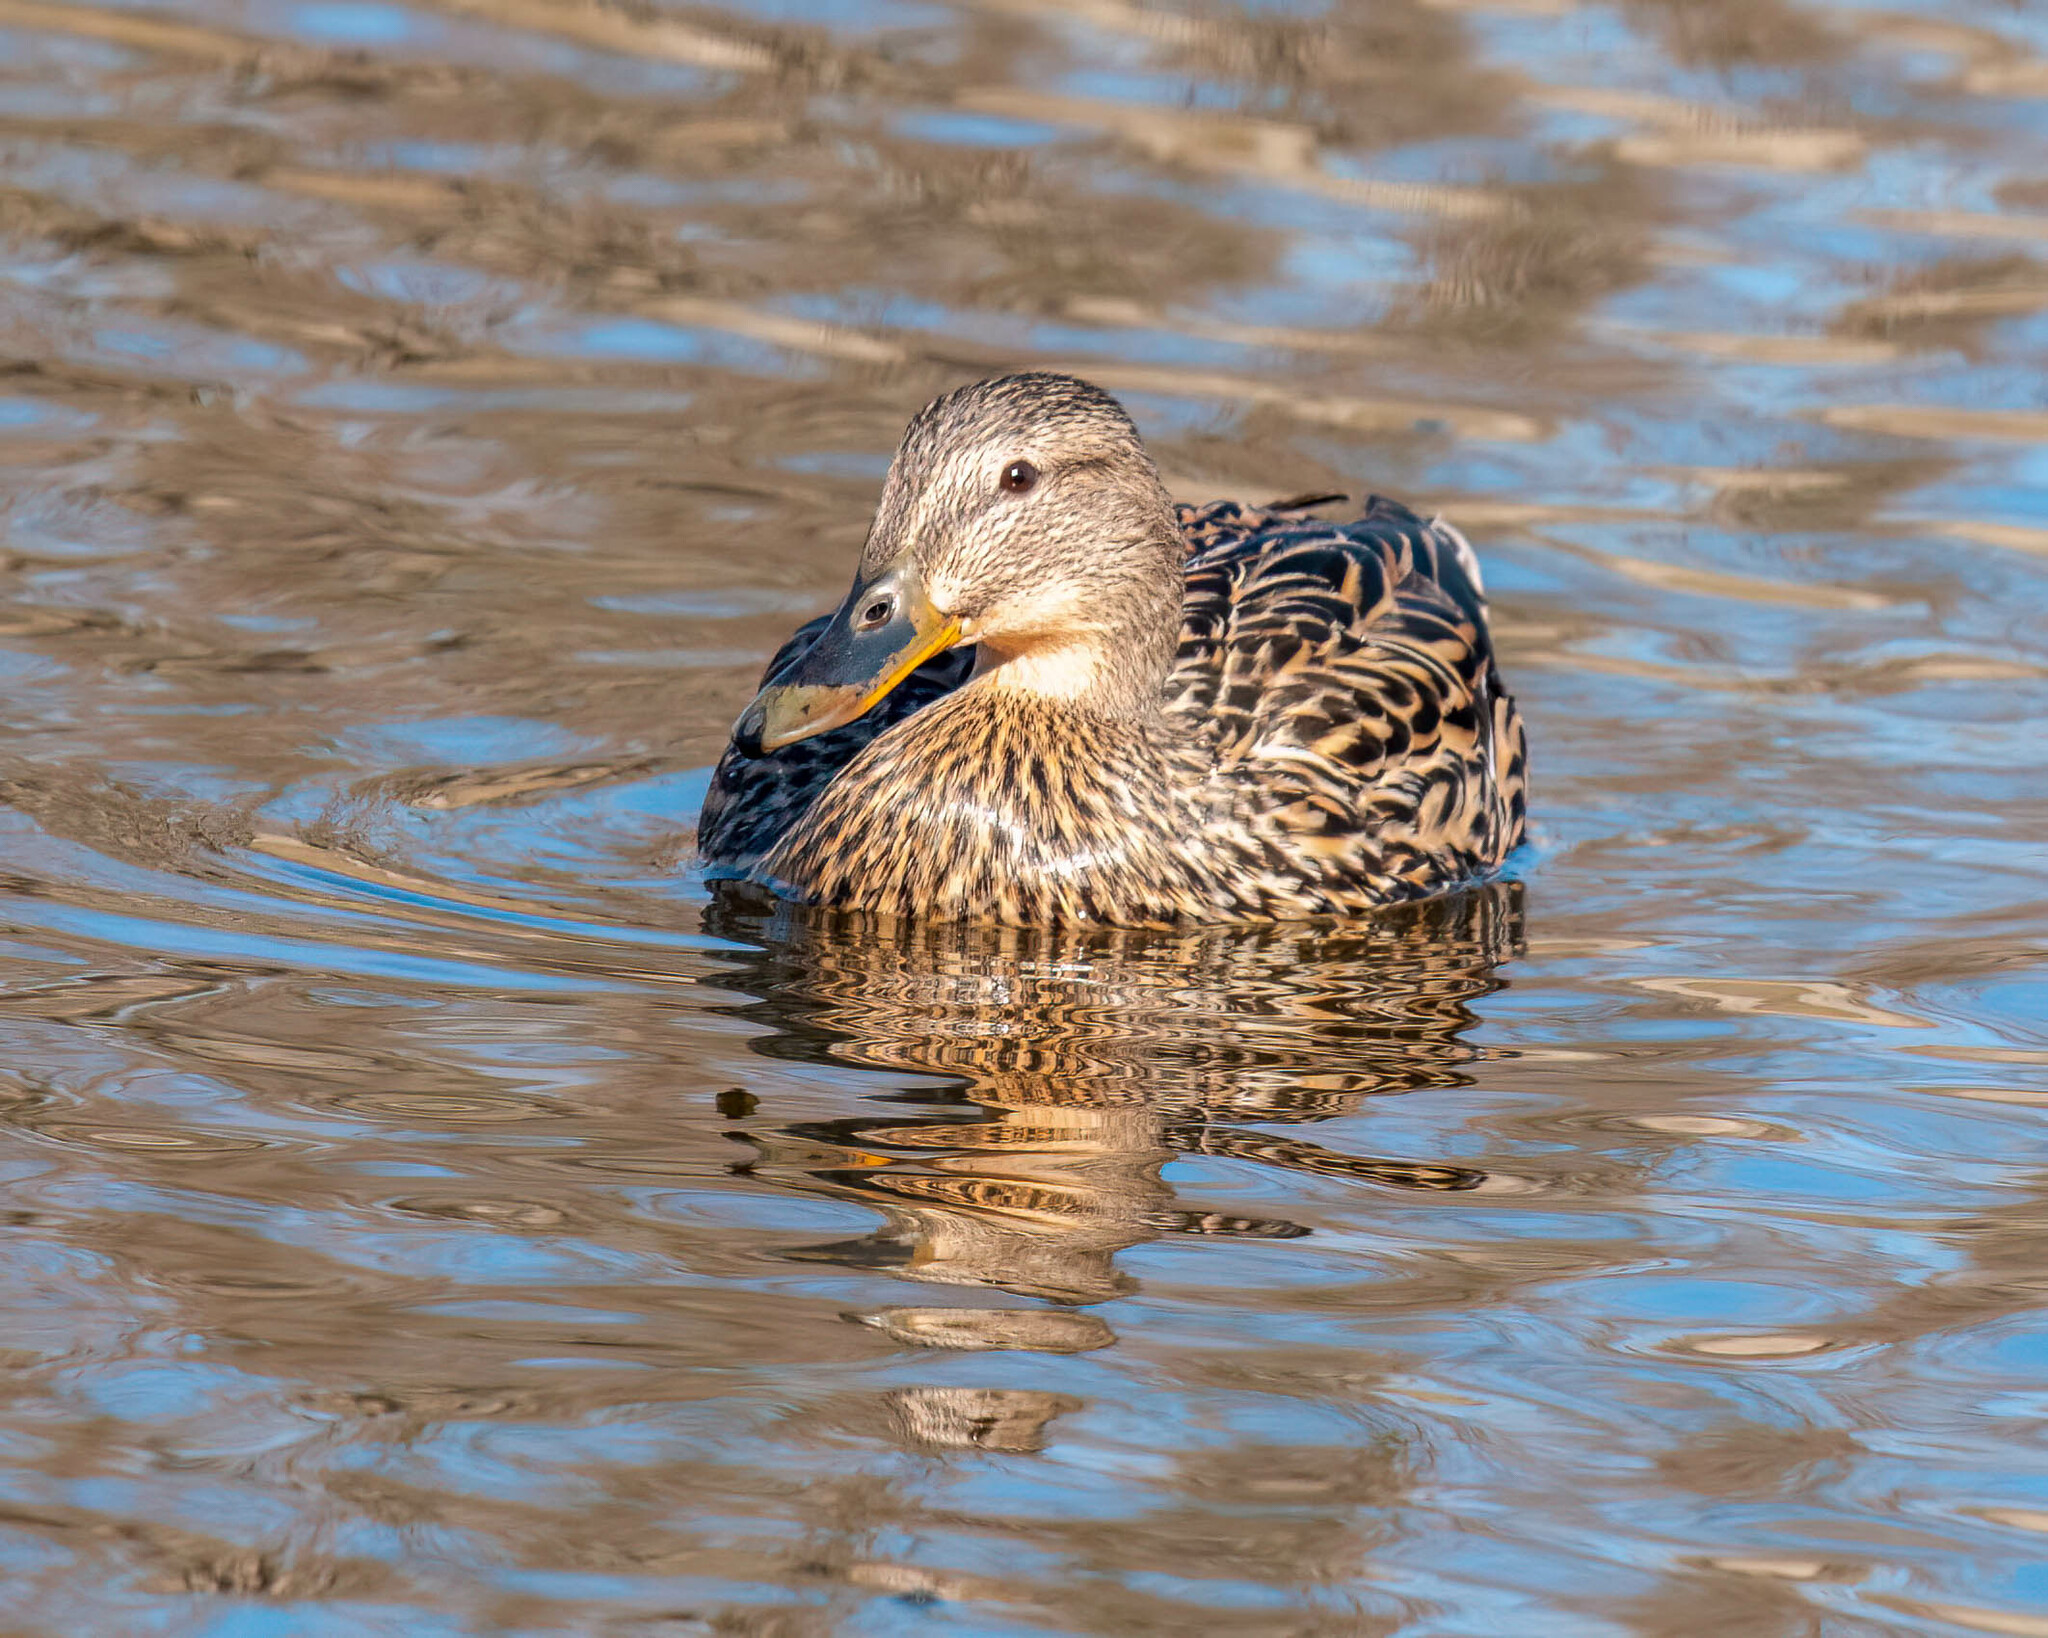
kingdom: Animalia
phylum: Chordata
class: Aves
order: Anseriformes
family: Anatidae
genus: Anas
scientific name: Anas platyrhynchos
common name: Mallard
